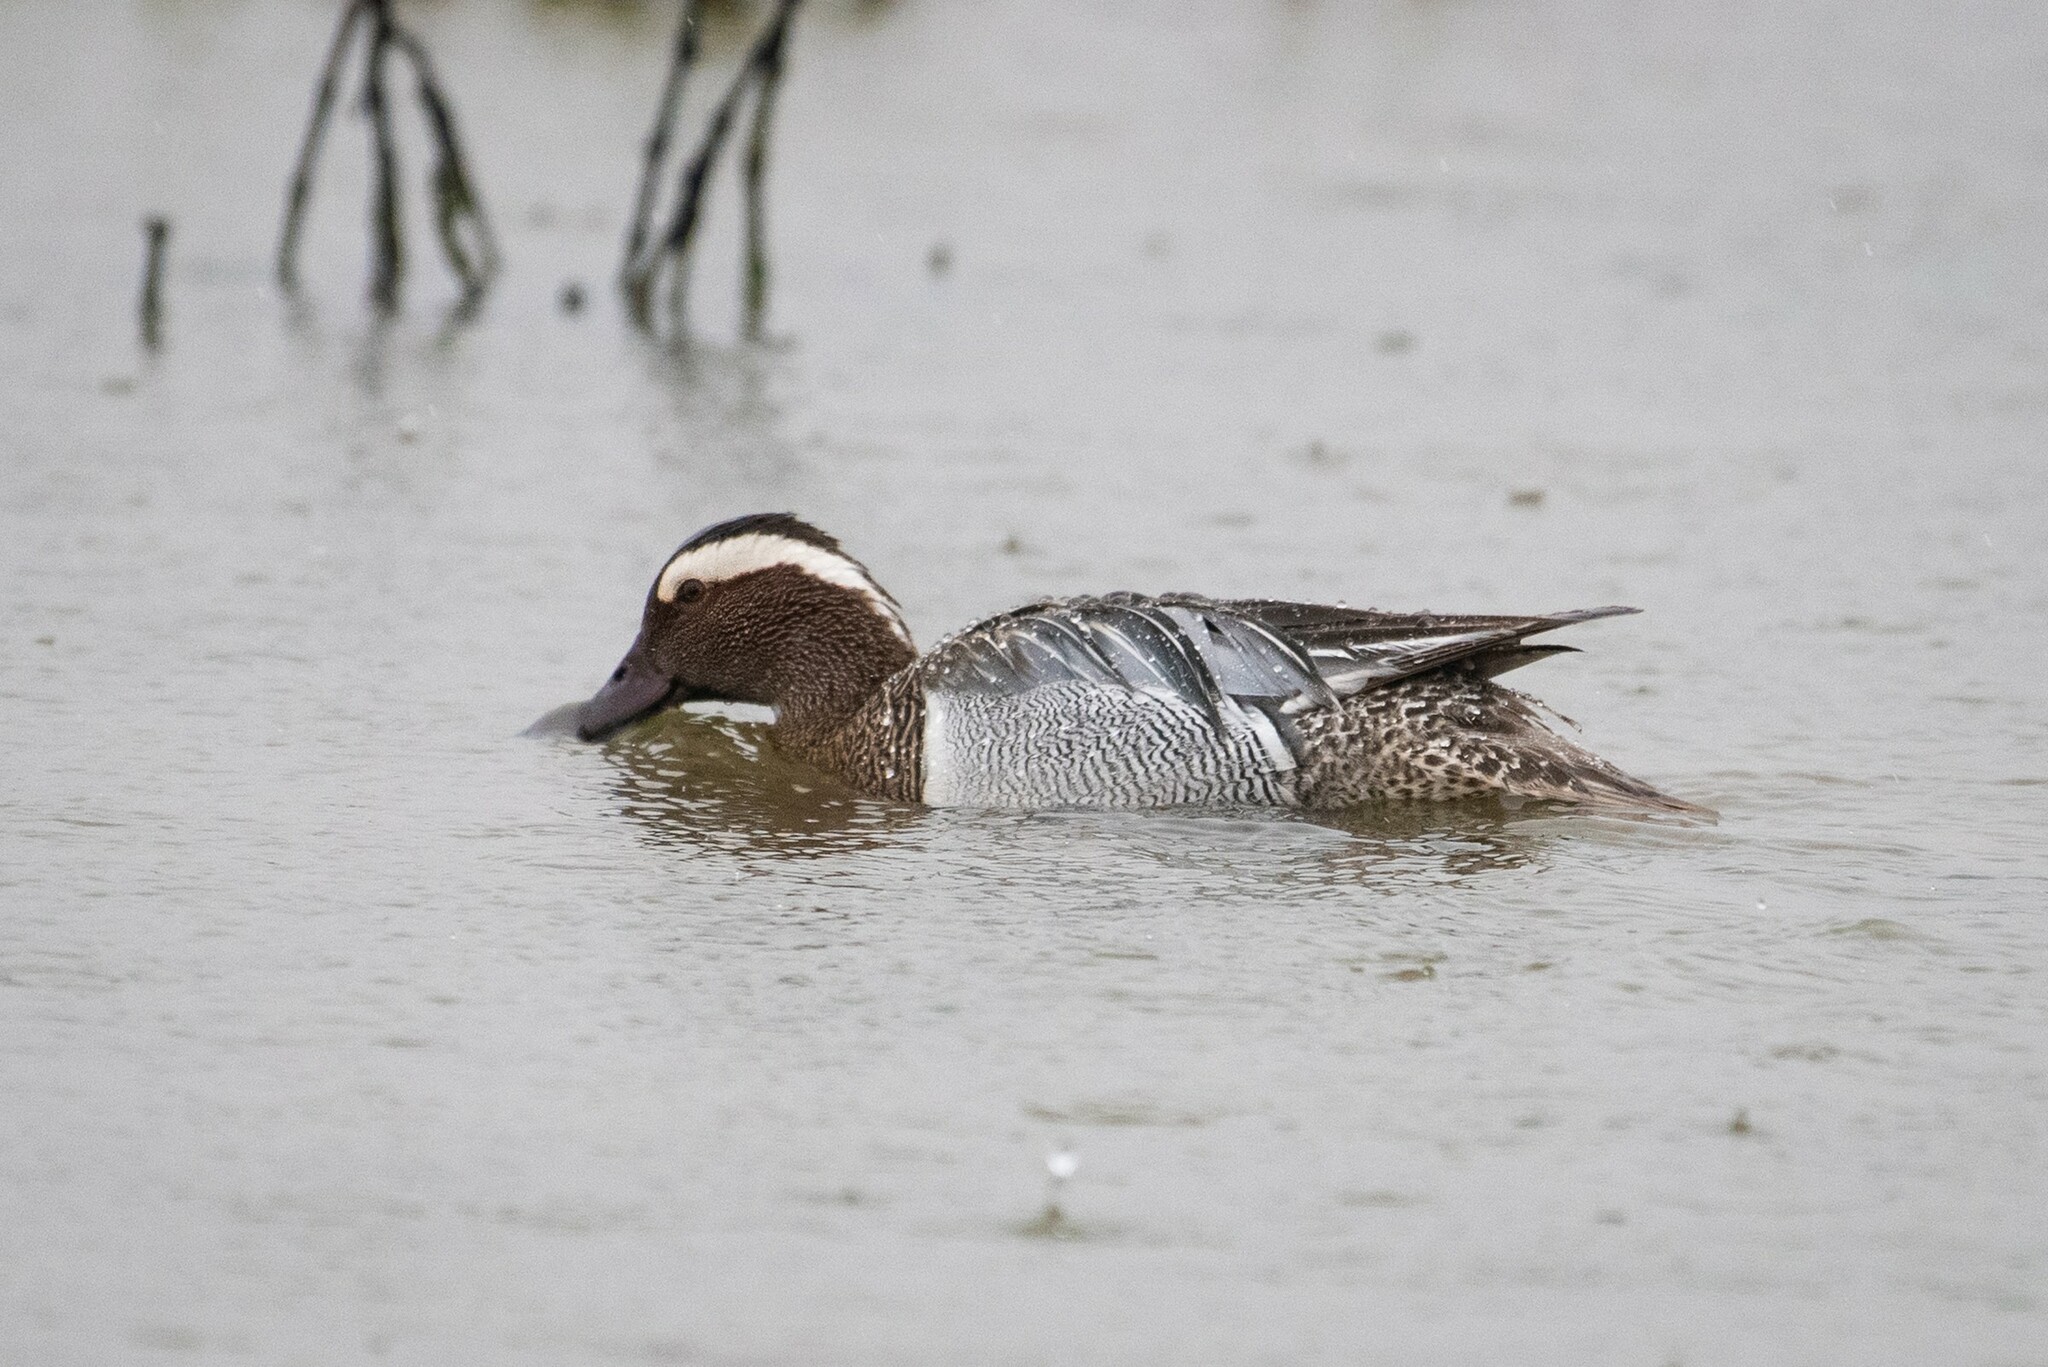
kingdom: Animalia
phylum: Chordata
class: Aves
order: Anseriformes
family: Anatidae
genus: Spatula
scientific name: Spatula querquedula
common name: Garganey
